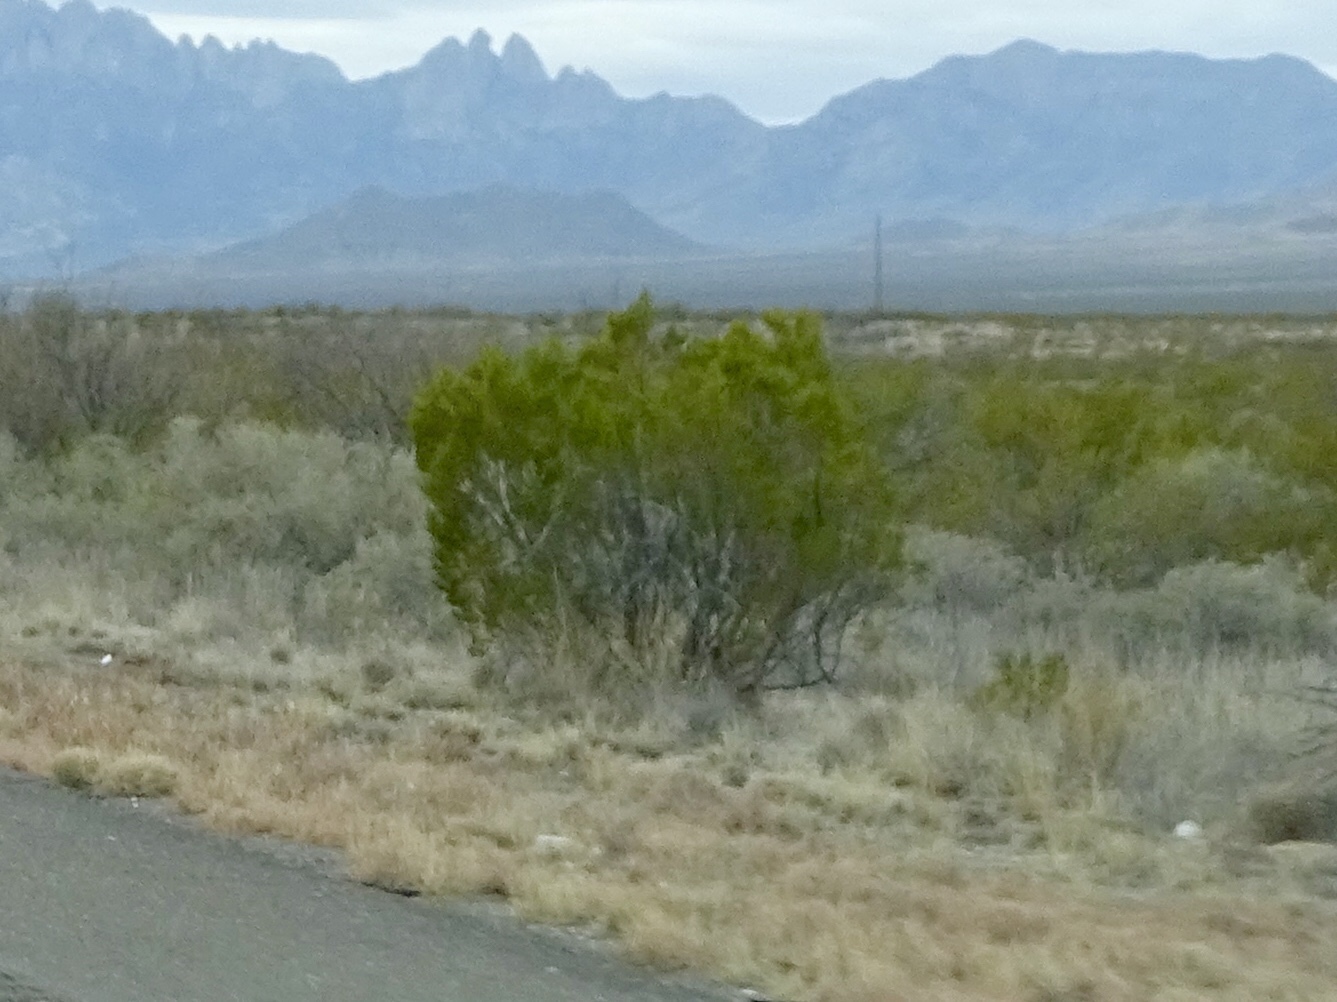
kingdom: Plantae
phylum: Tracheophyta
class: Magnoliopsida
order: Zygophyllales
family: Zygophyllaceae
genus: Larrea
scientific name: Larrea tridentata
